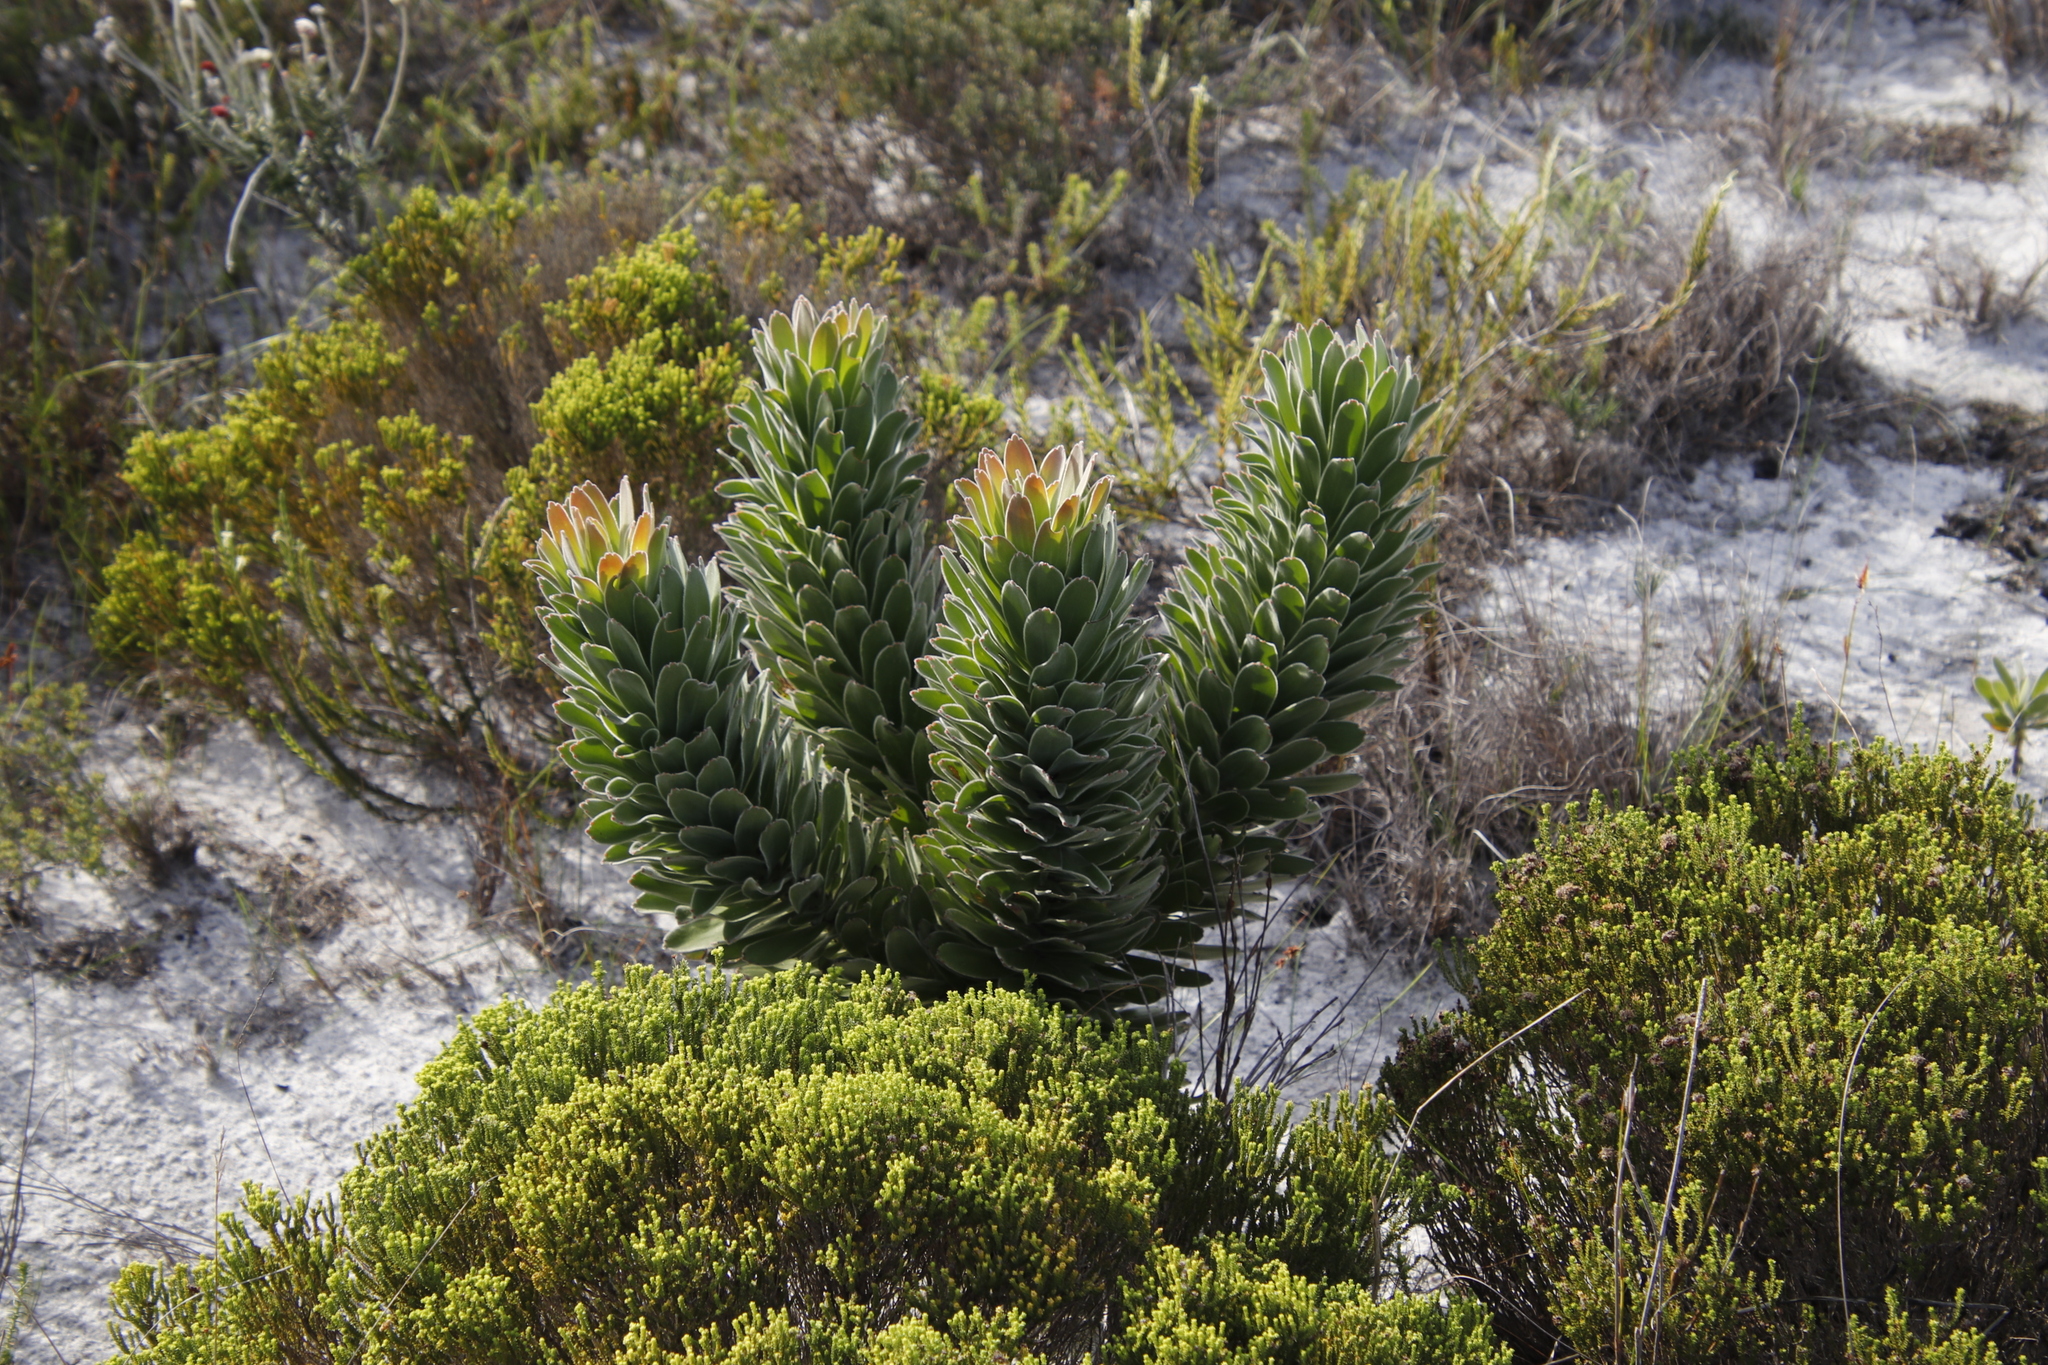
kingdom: Plantae
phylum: Tracheophyta
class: Magnoliopsida
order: Proteales
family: Proteaceae
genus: Mimetes
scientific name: Mimetes fimbriifolius
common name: Fringed bottlebrush
